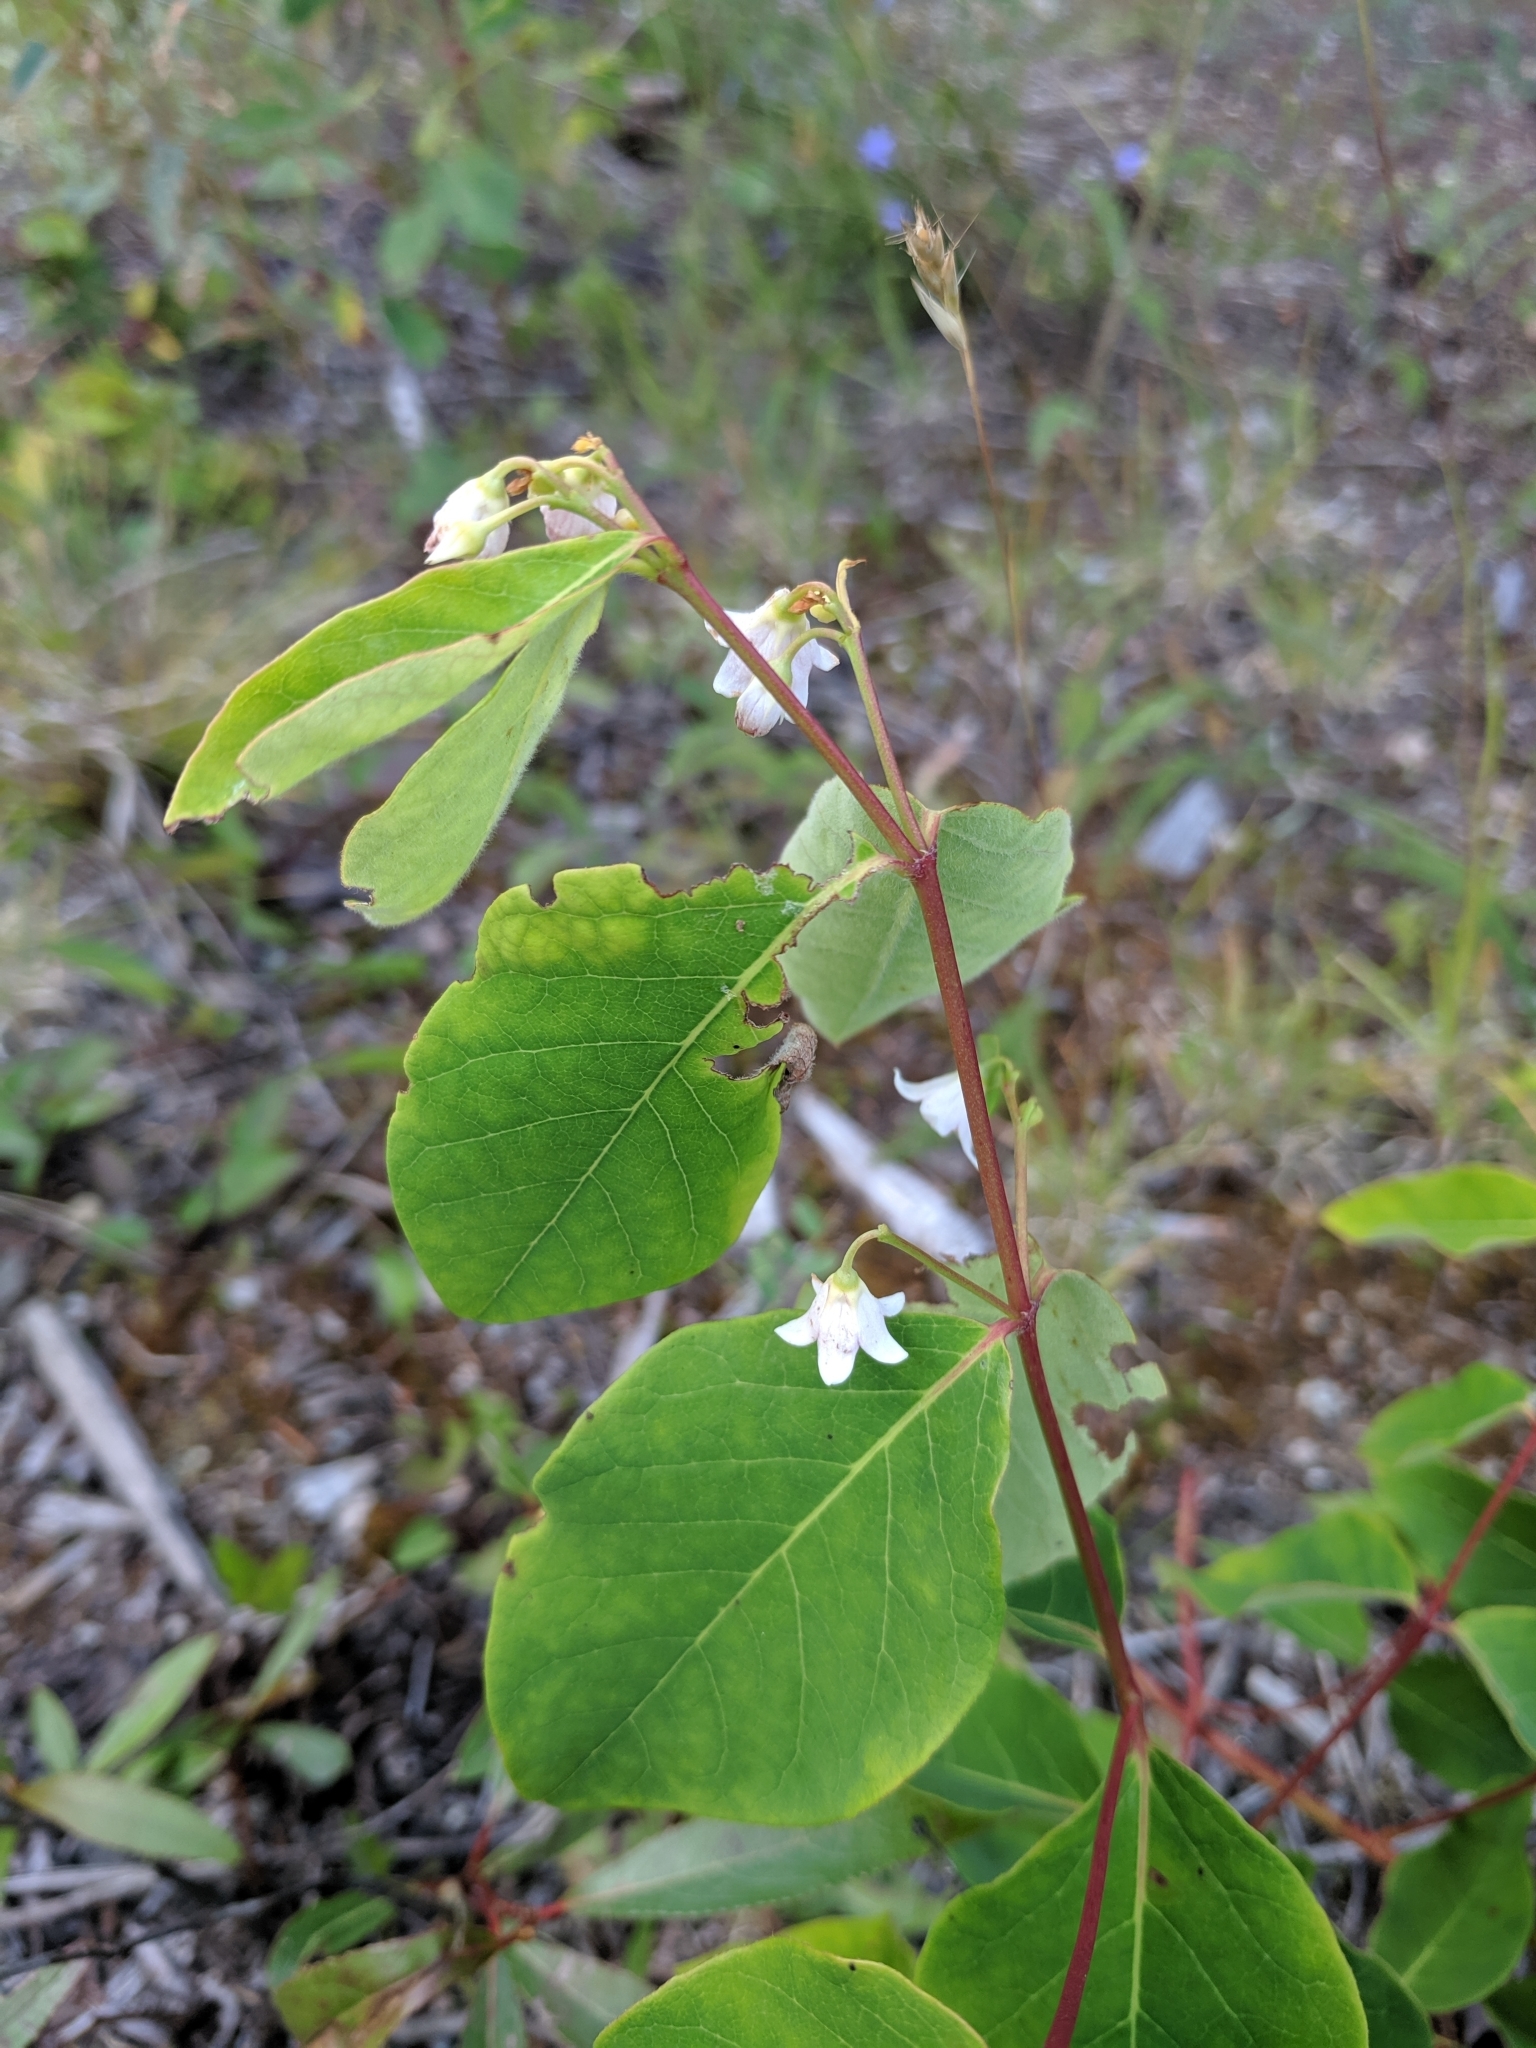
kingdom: Plantae
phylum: Tracheophyta
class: Magnoliopsida
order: Gentianales
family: Apocynaceae
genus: Apocynum
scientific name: Apocynum androsaemifolium
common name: Spreading dogbane
